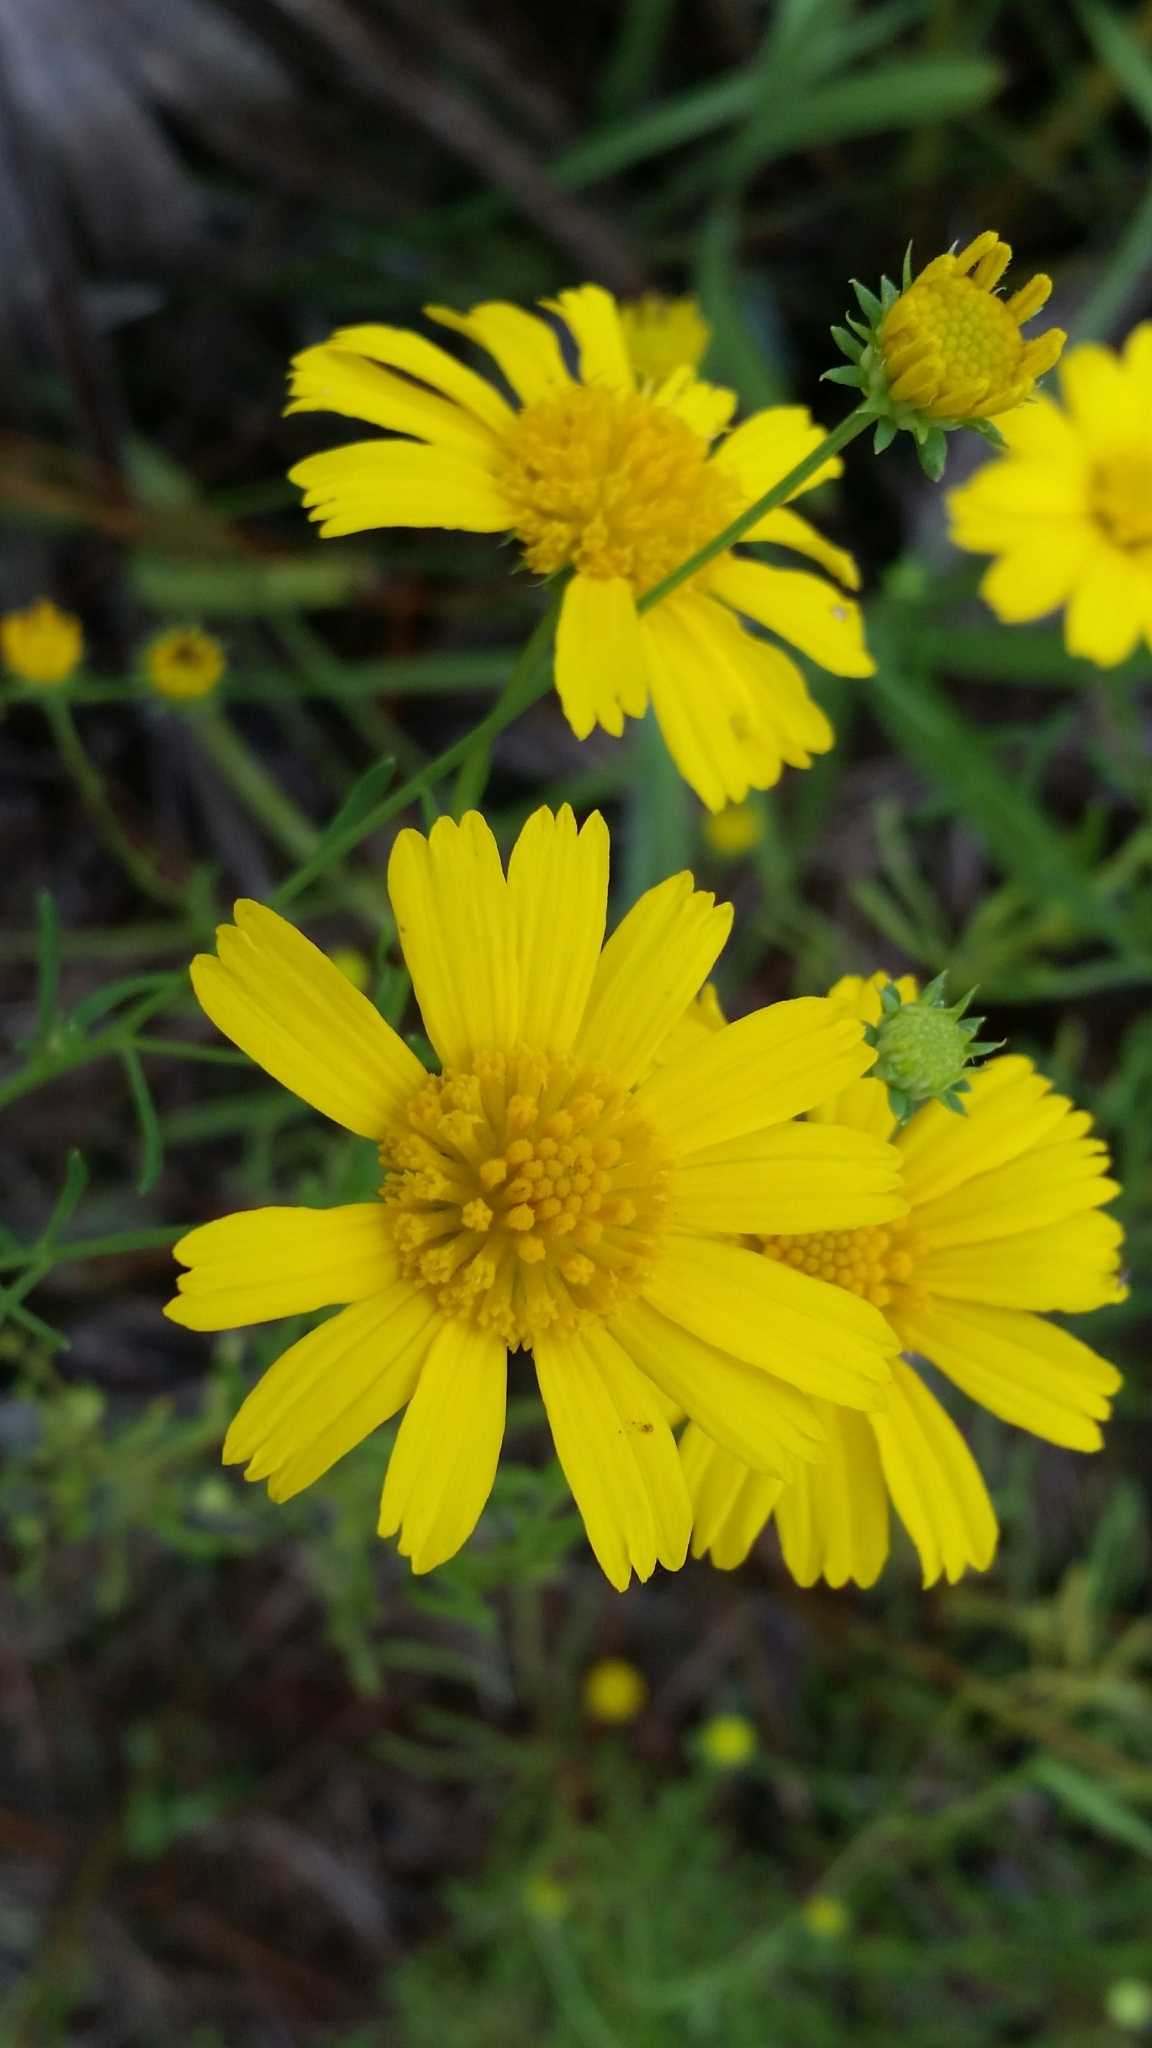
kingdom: Plantae
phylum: Tracheophyta
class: Magnoliopsida
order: Asterales
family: Asteraceae
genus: Balduina
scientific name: Balduina angustifolia
